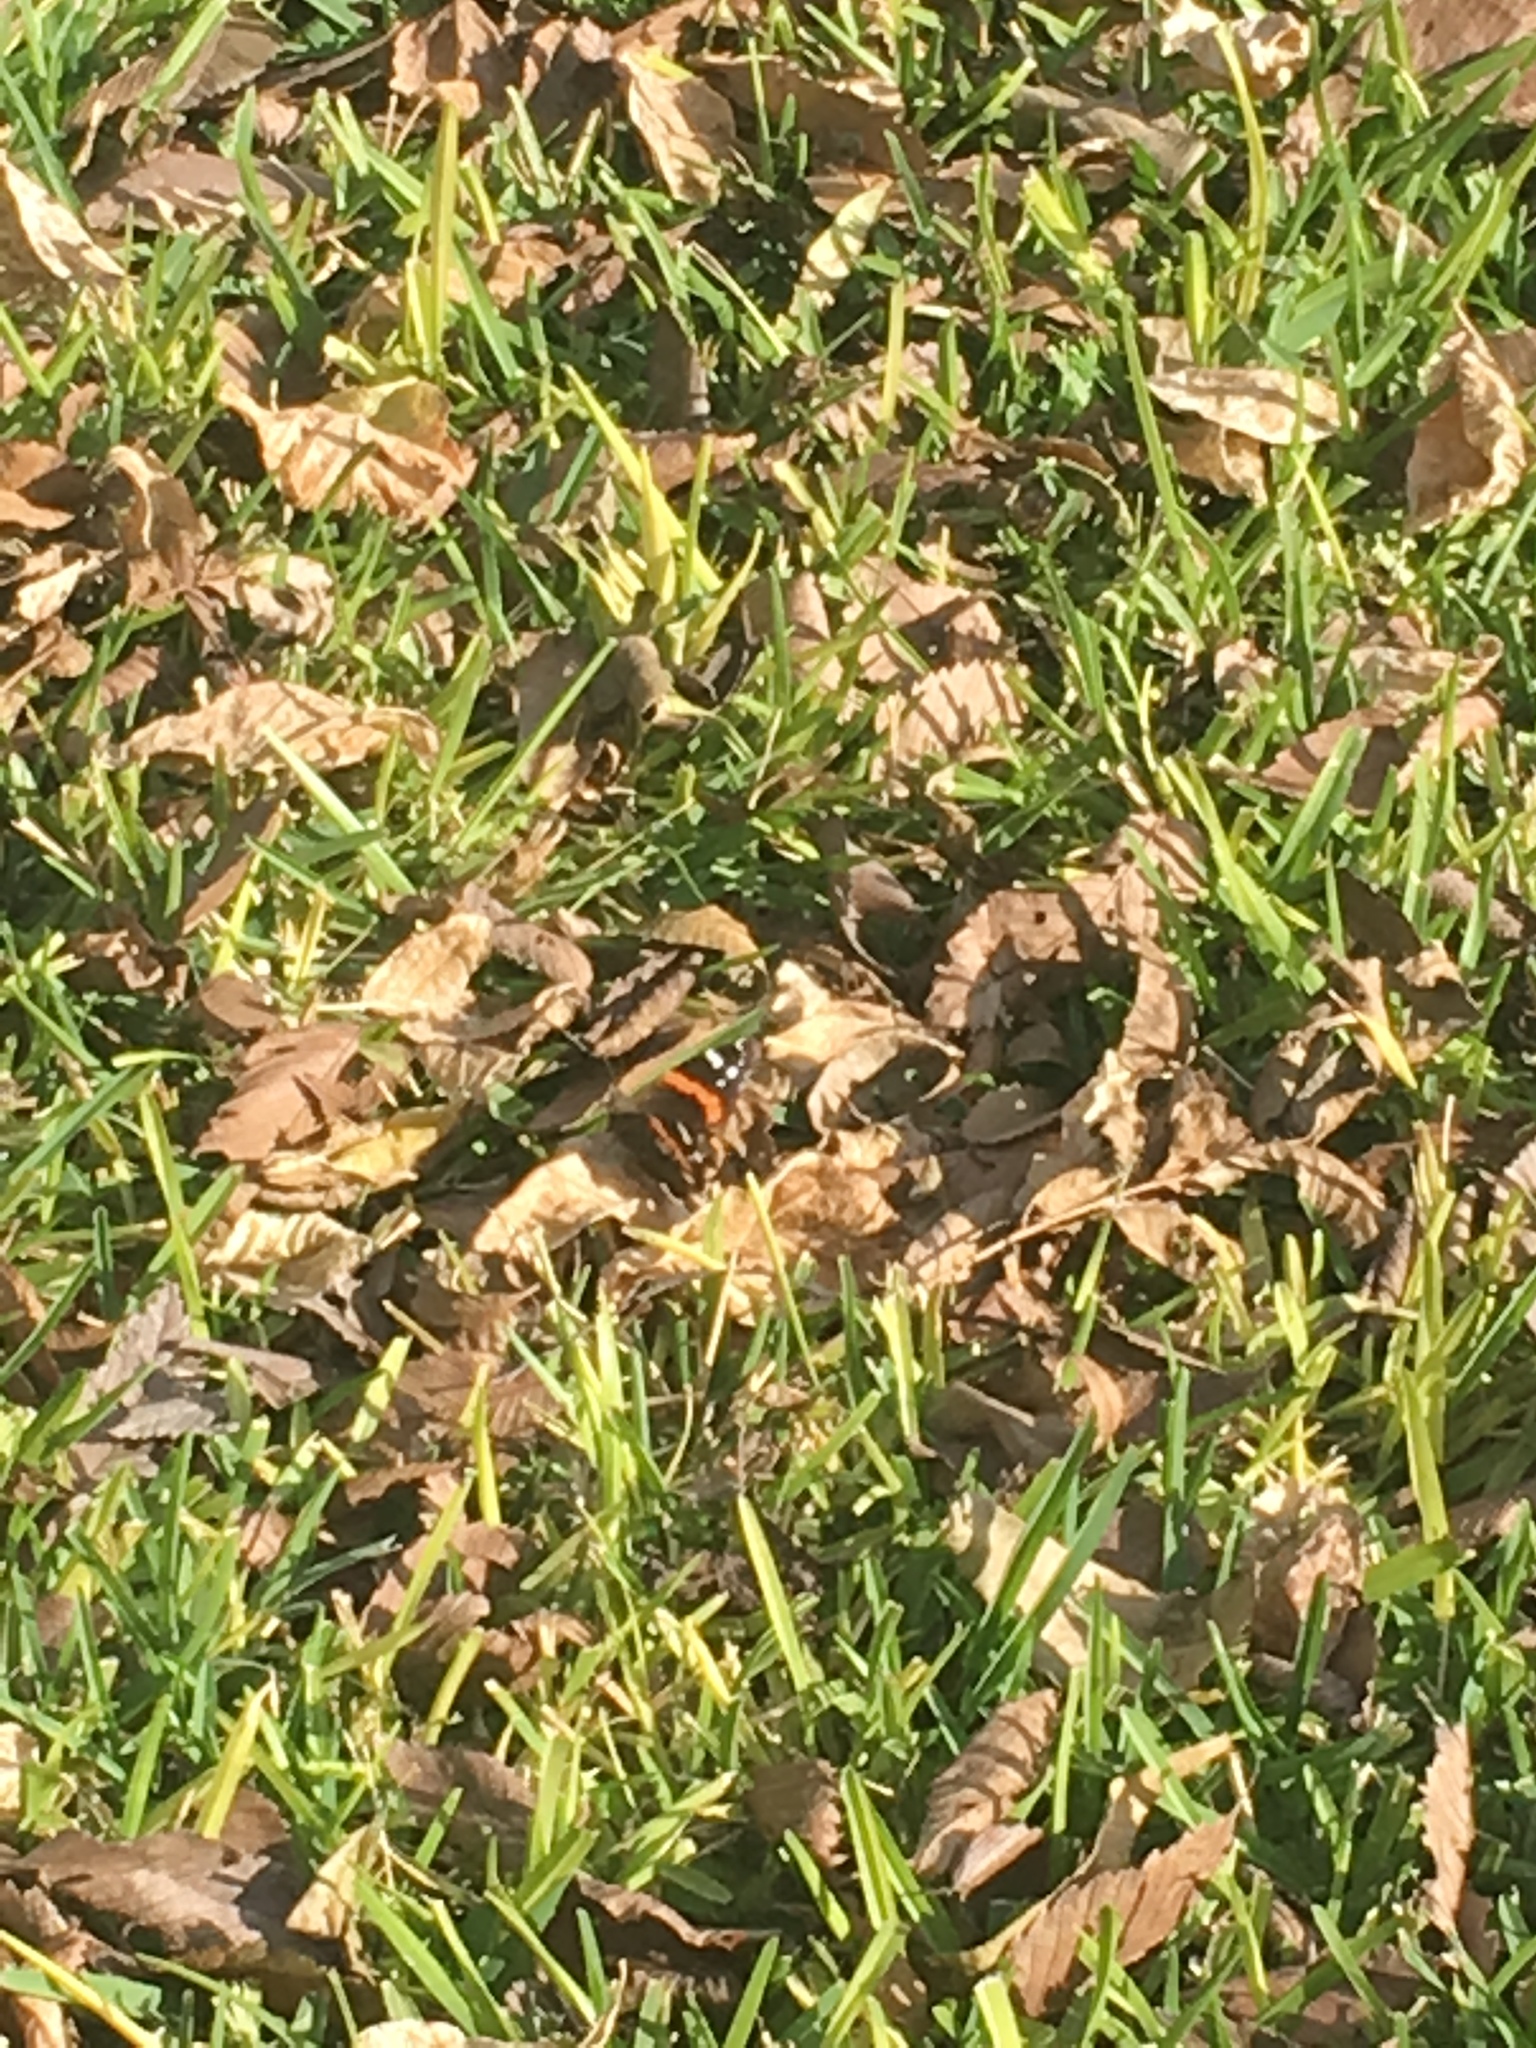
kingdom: Animalia
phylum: Arthropoda
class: Insecta
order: Lepidoptera
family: Nymphalidae
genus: Vanessa
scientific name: Vanessa atalanta
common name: Red admiral
